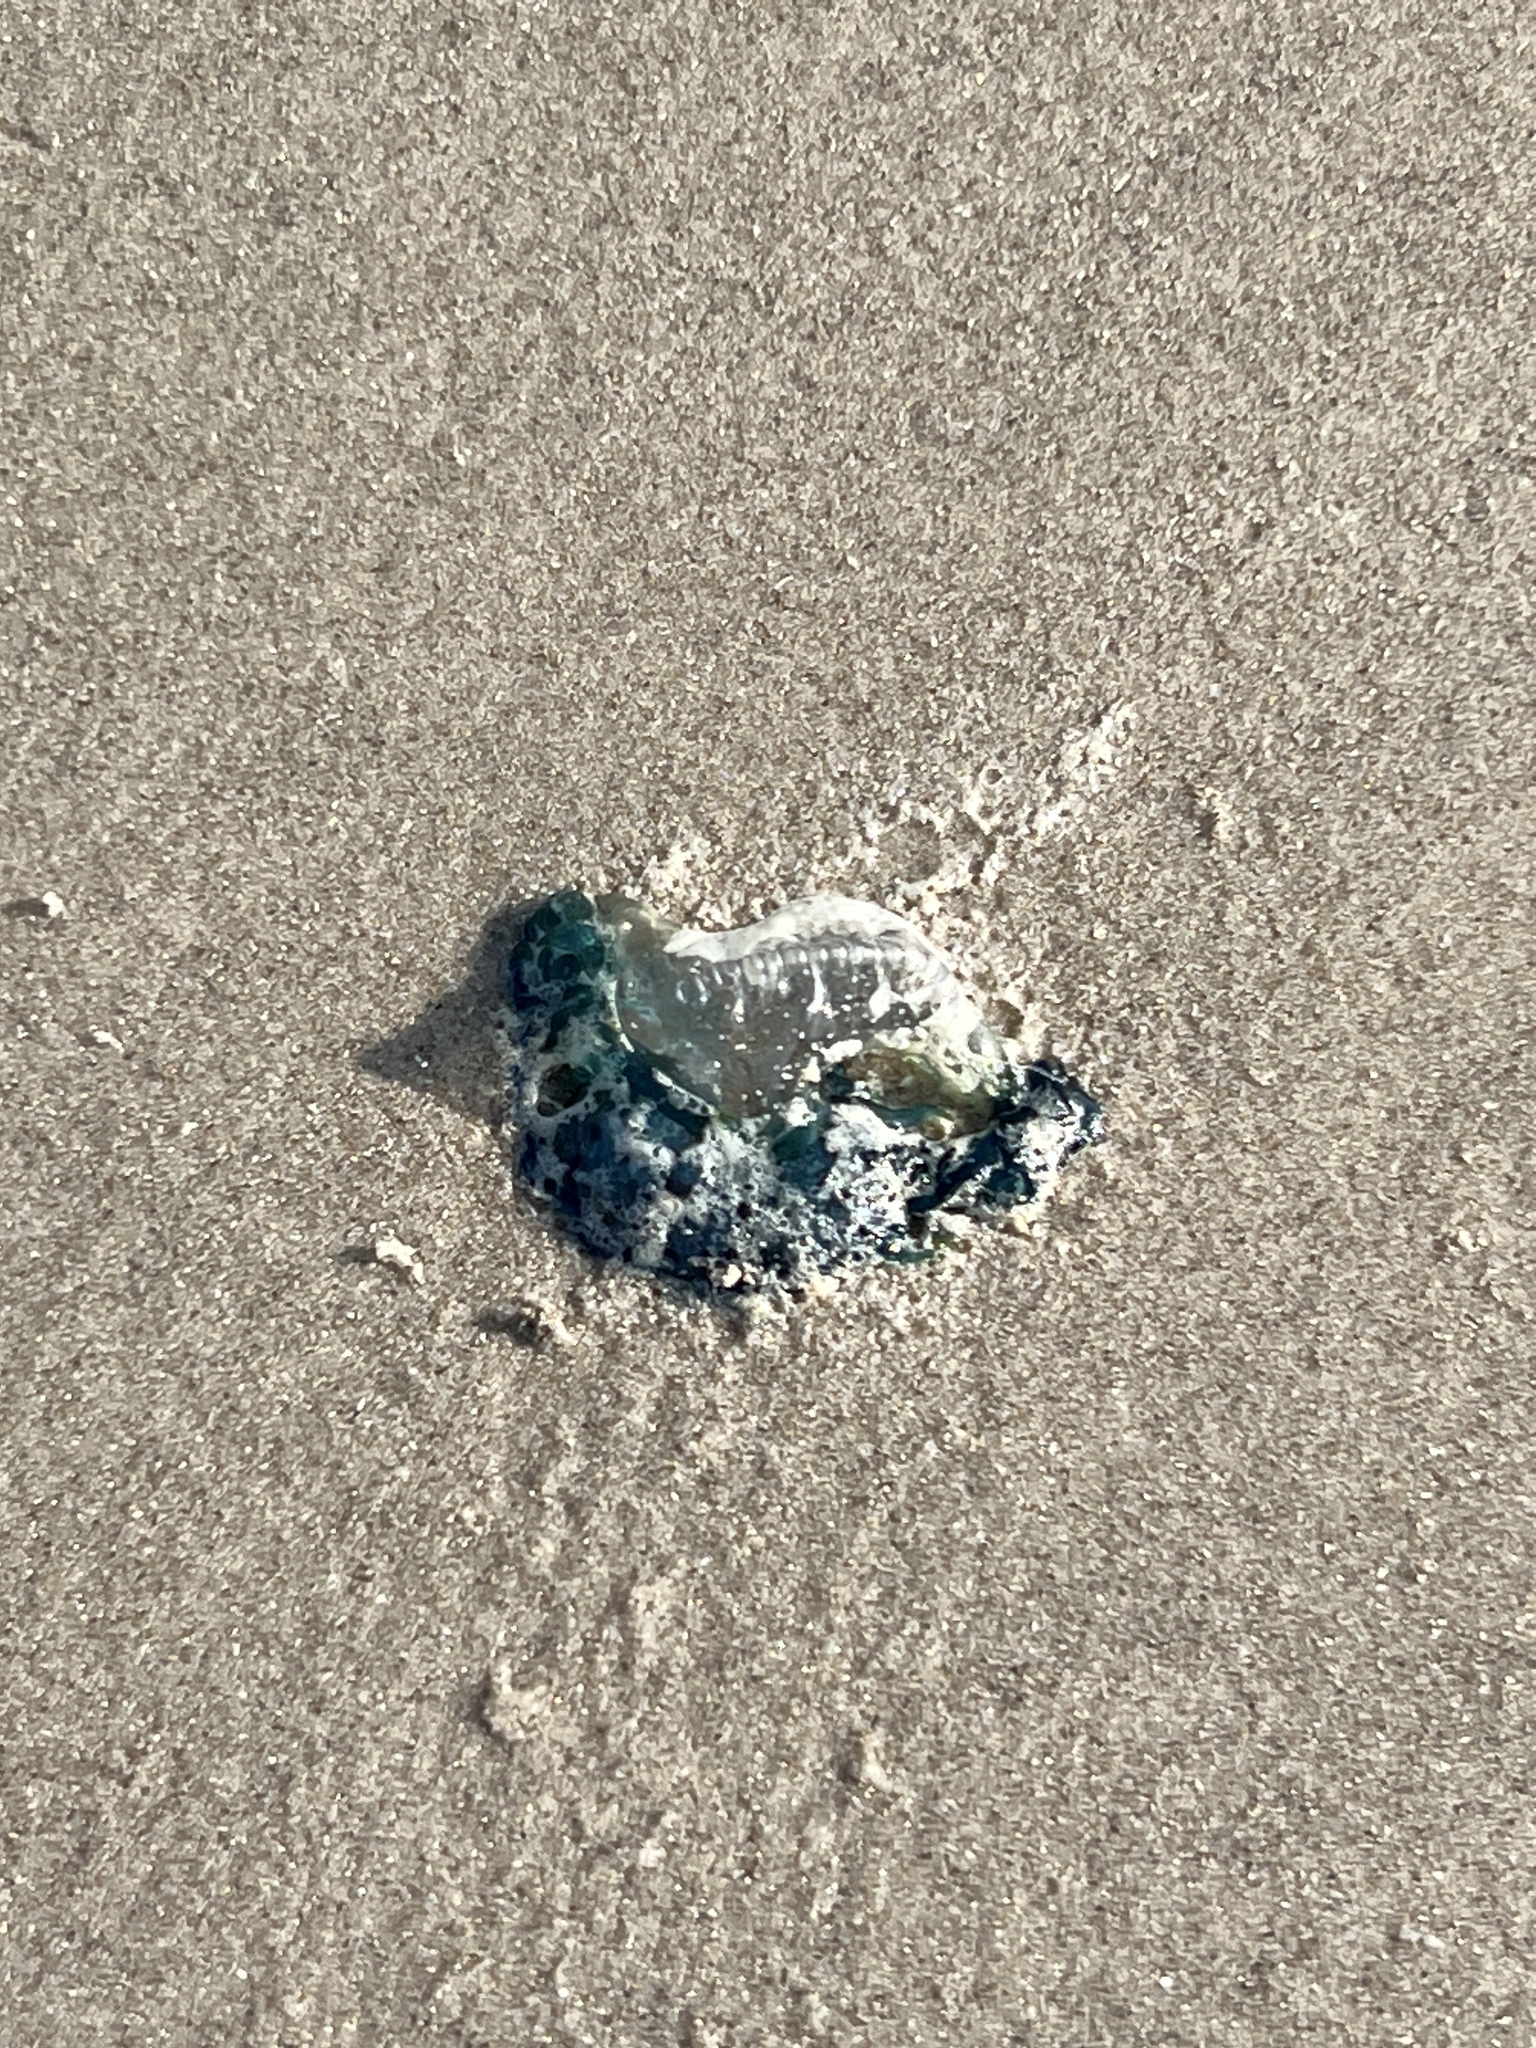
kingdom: Animalia
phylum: Cnidaria
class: Hydrozoa
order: Siphonophorae
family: Physaliidae
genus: Physalia
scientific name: Physalia physalis
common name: Portuguese man-of-war
